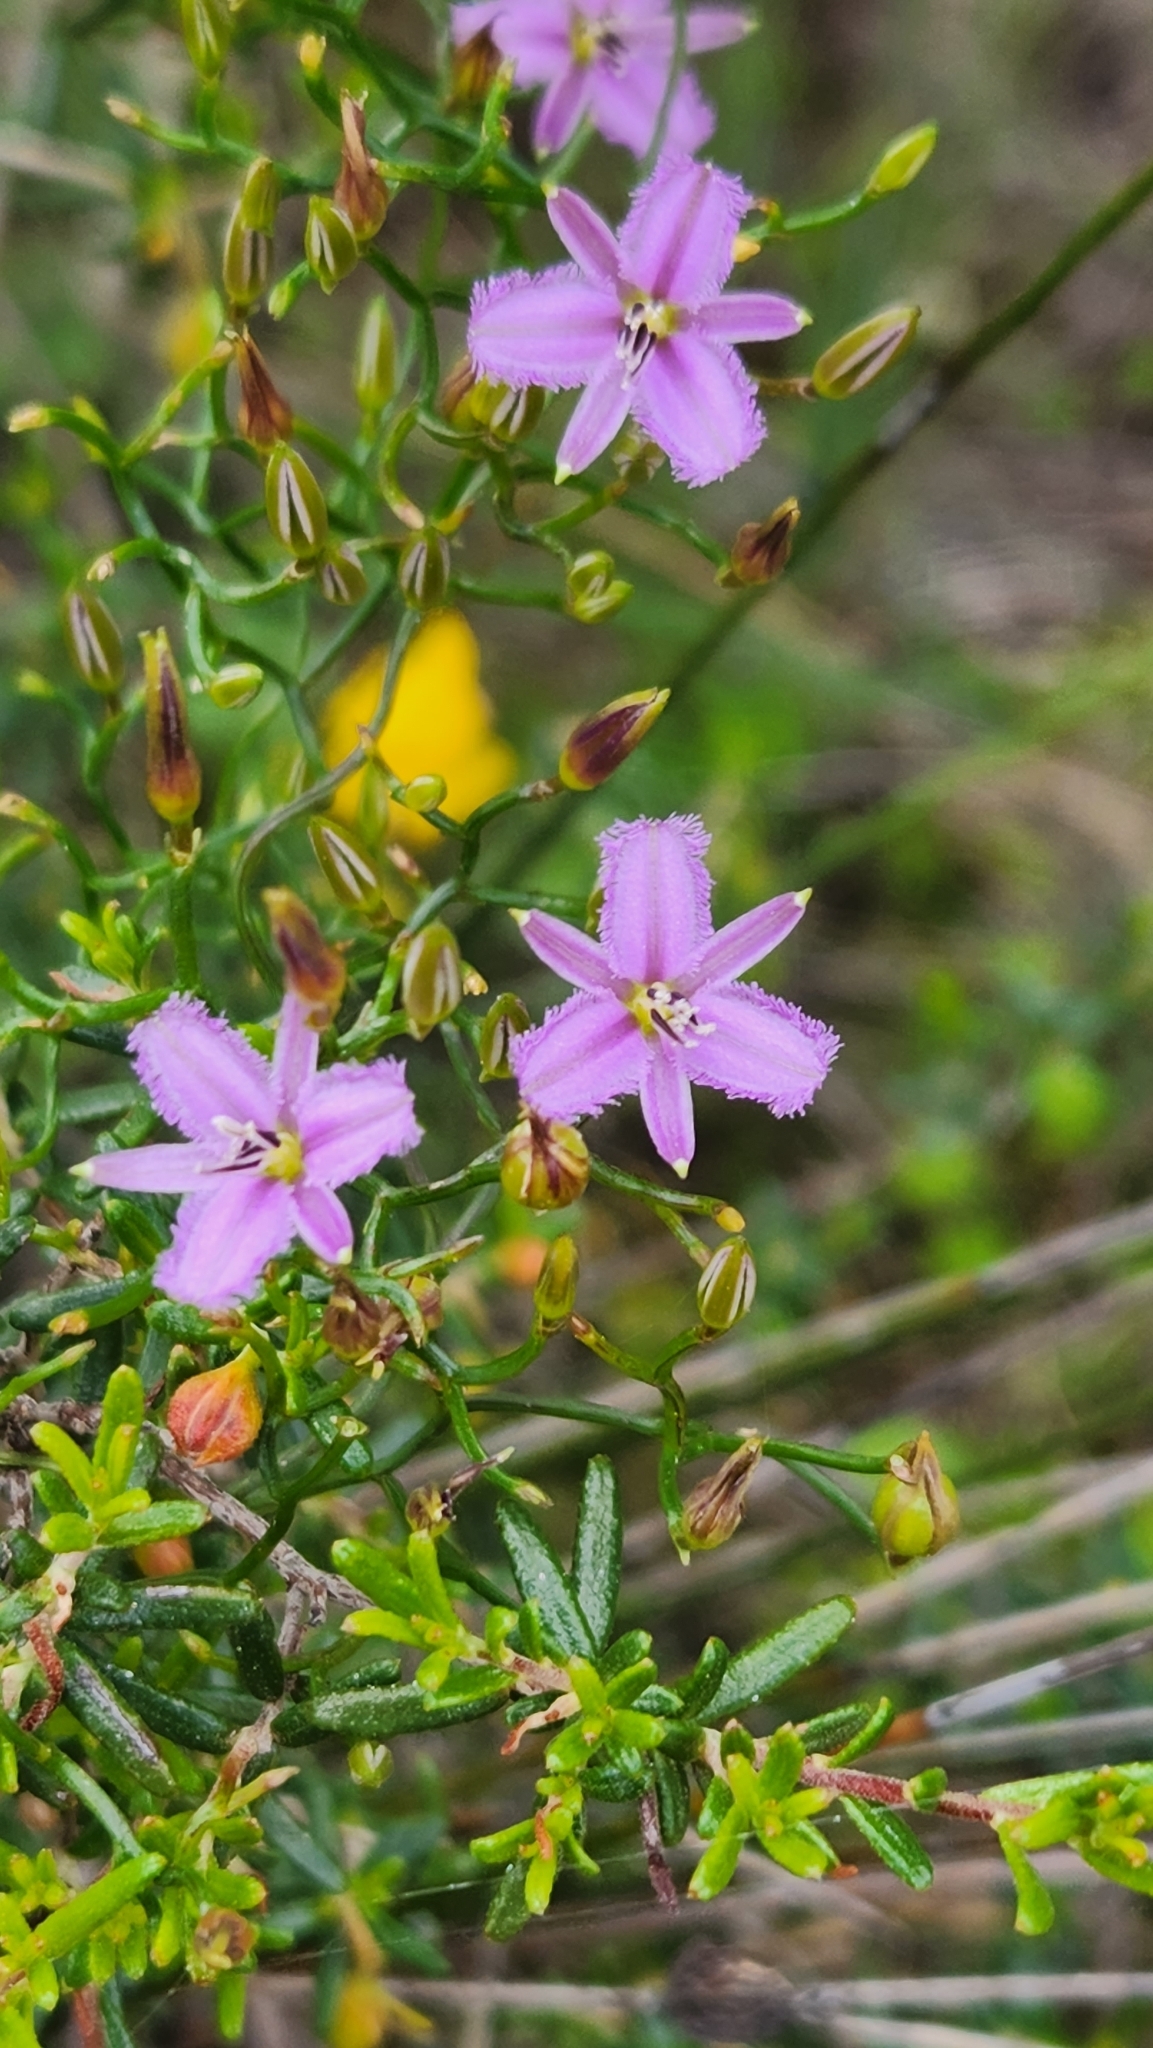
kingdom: Plantae
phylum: Tracheophyta
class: Liliopsida
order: Asparagales
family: Asparagaceae
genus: Thysanotus
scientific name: Thysanotus patersonii
